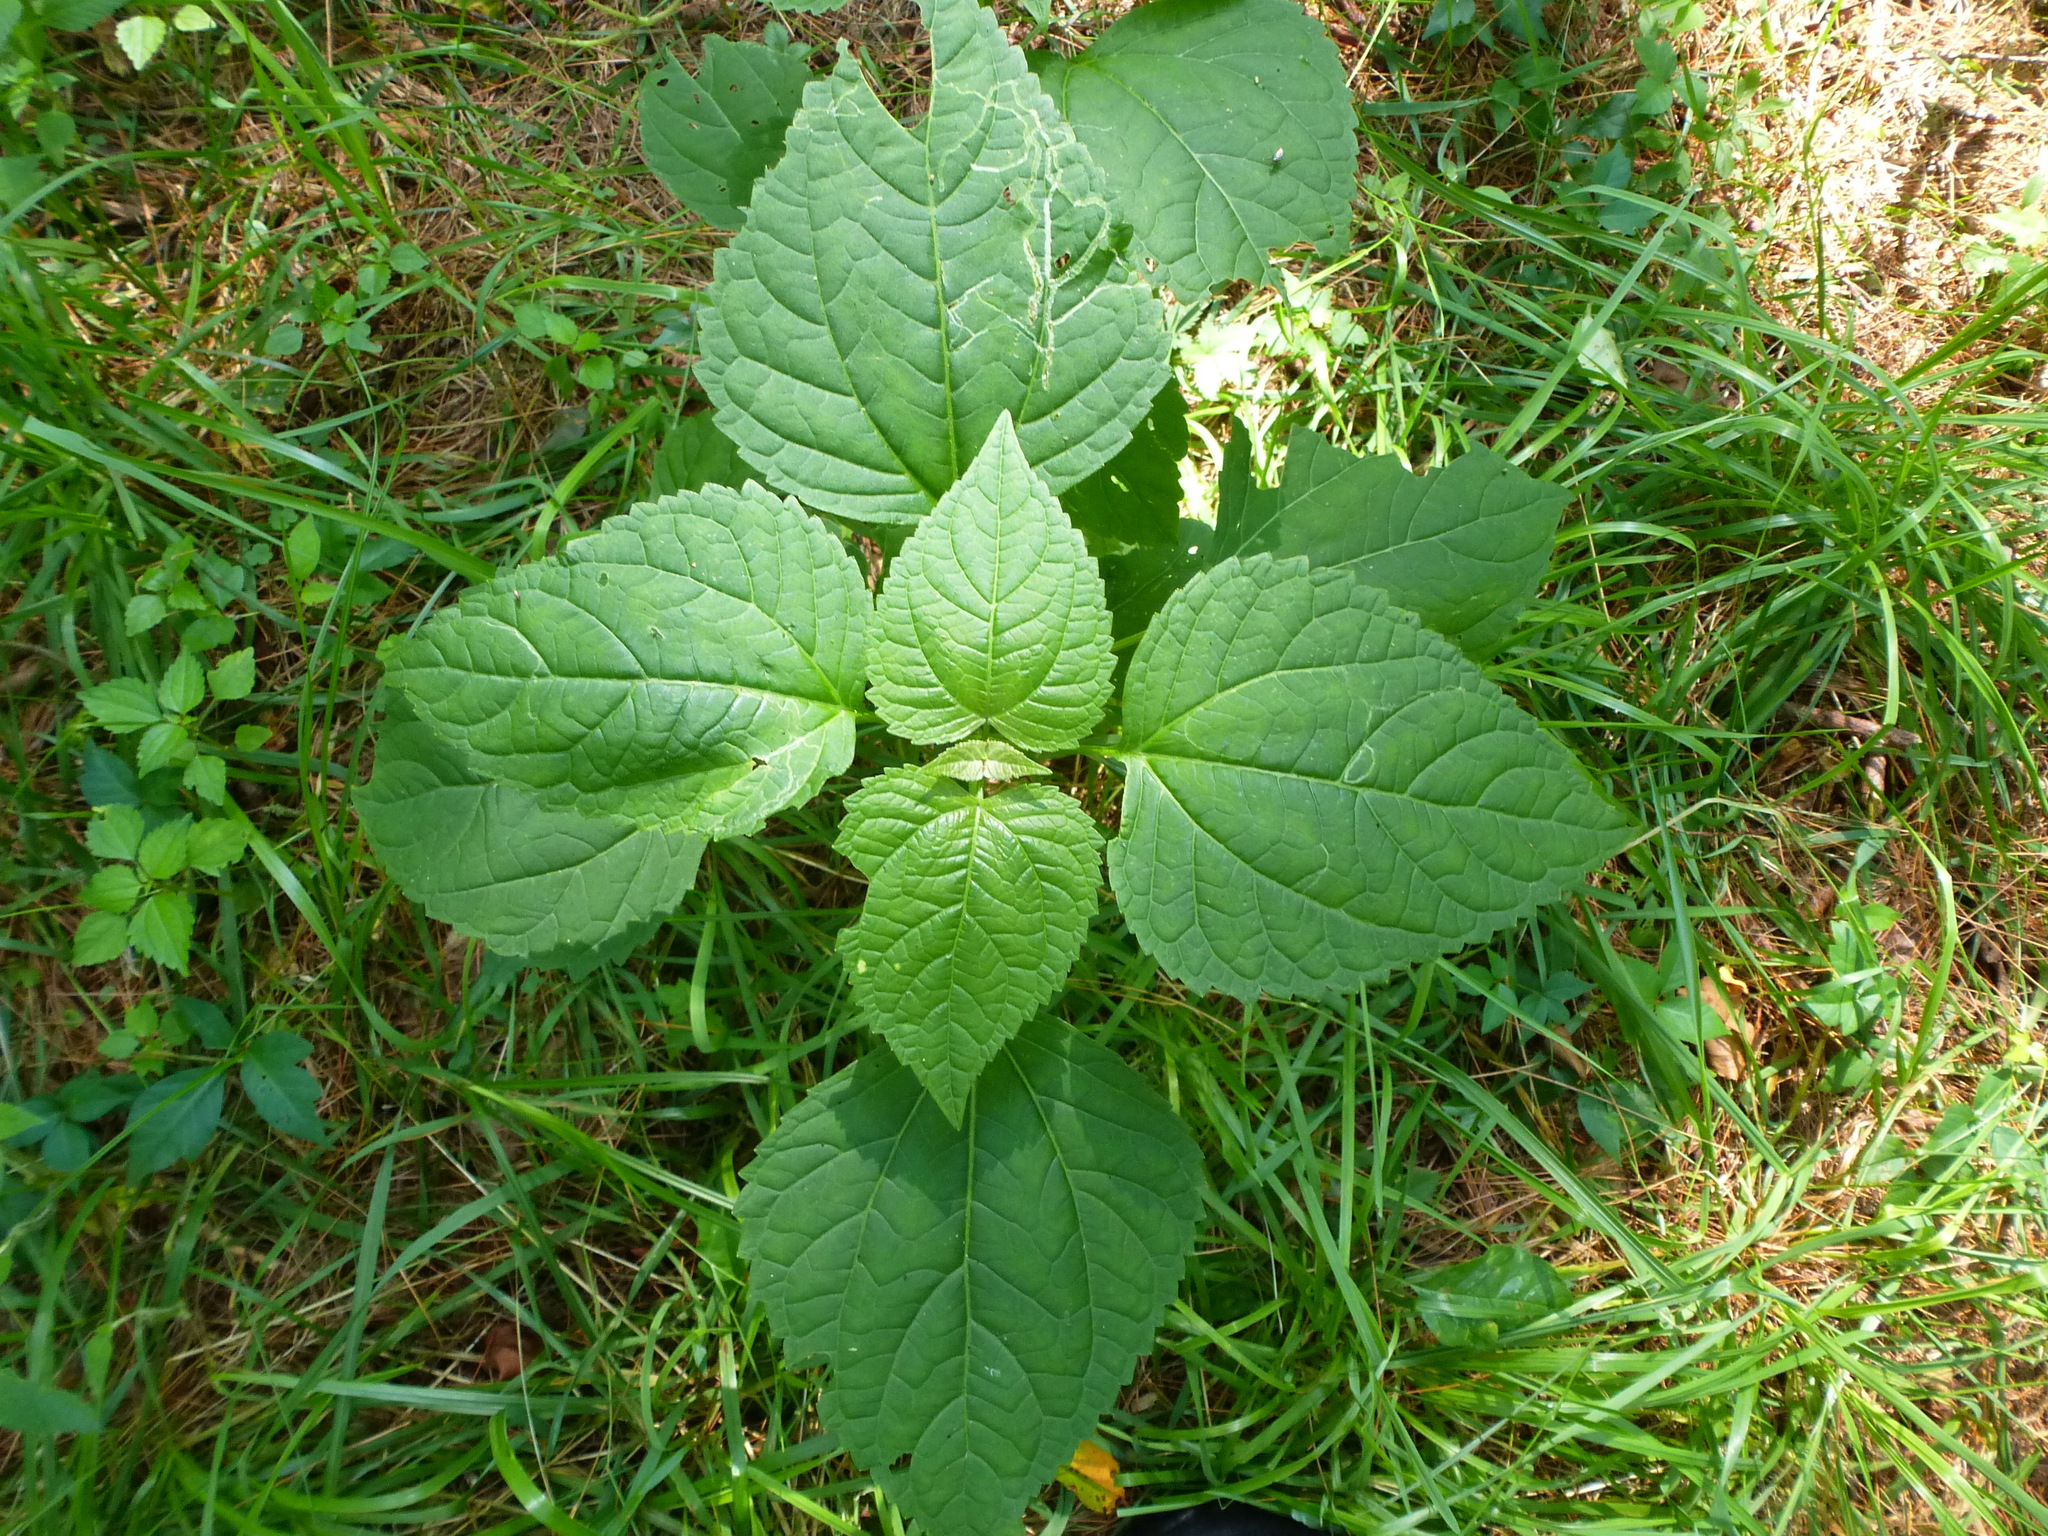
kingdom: Plantae
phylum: Tracheophyta
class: Magnoliopsida
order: Asterales
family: Asteraceae
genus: Ageratina
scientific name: Ageratina altissima
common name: White snakeroot
